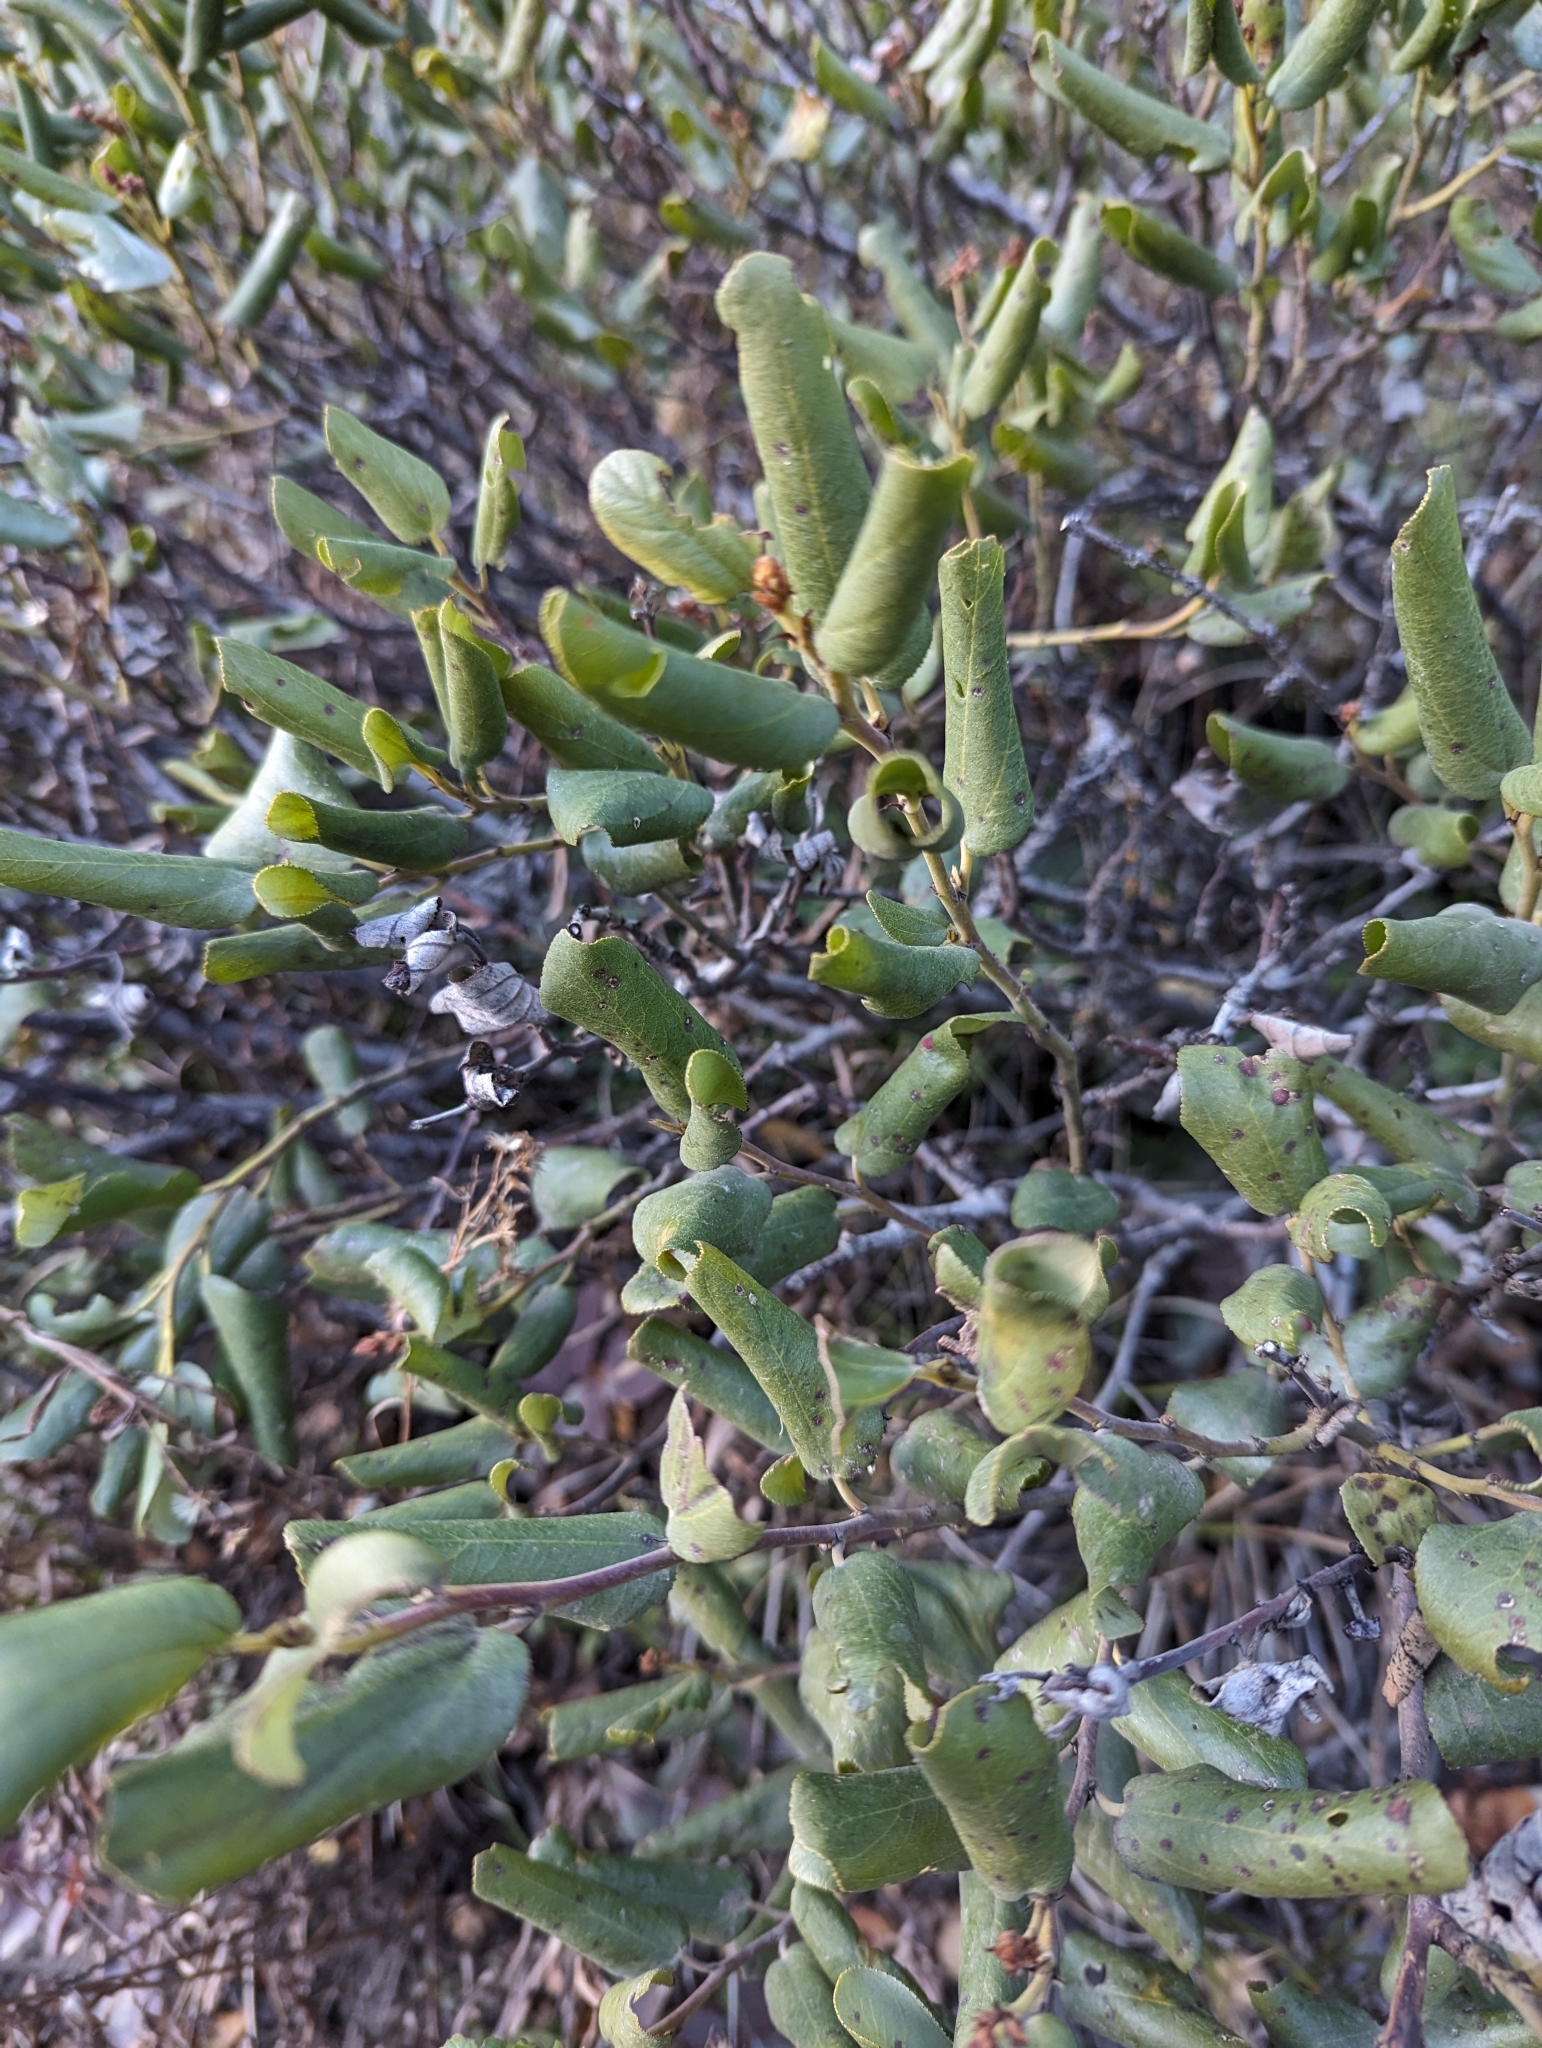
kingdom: Plantae
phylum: Tracheophyta
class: Magnoliopsida
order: Rosales
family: Rhamnaceae
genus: Ceanothus
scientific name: Ceanothus velutinus
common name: Snowbrush
